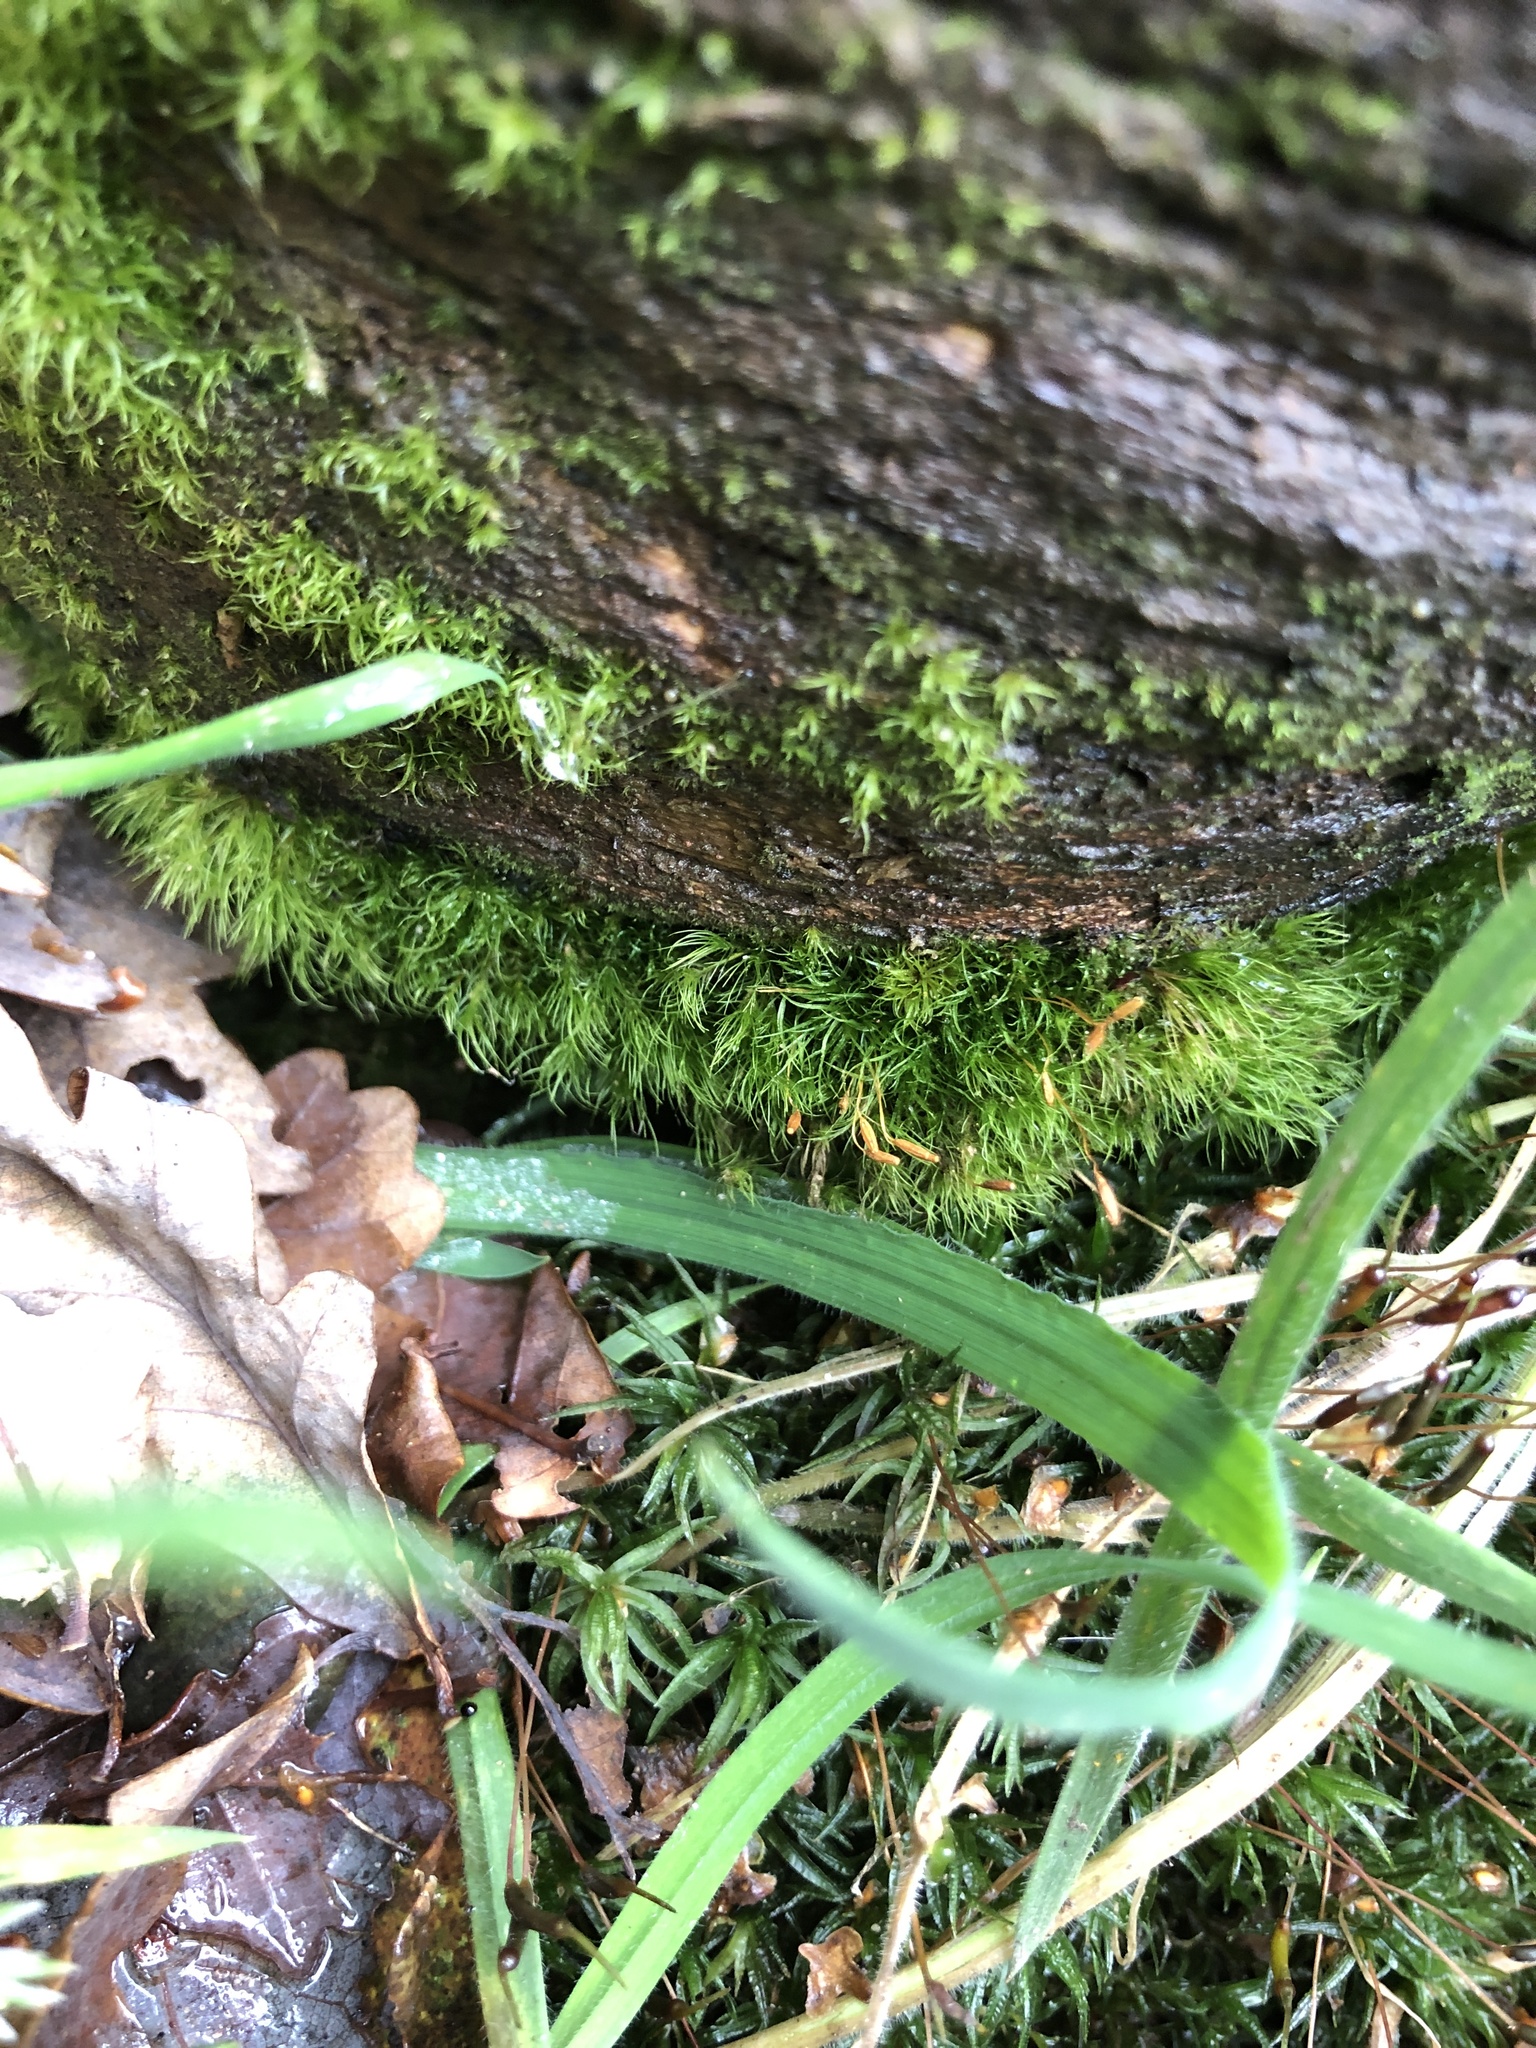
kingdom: Plantae
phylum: Bryophyta
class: Bryopsida
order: Dicranales
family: Dicranellaceae
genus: Dicranella
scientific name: Dicranella heteromalla
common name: Silky forklet moss
